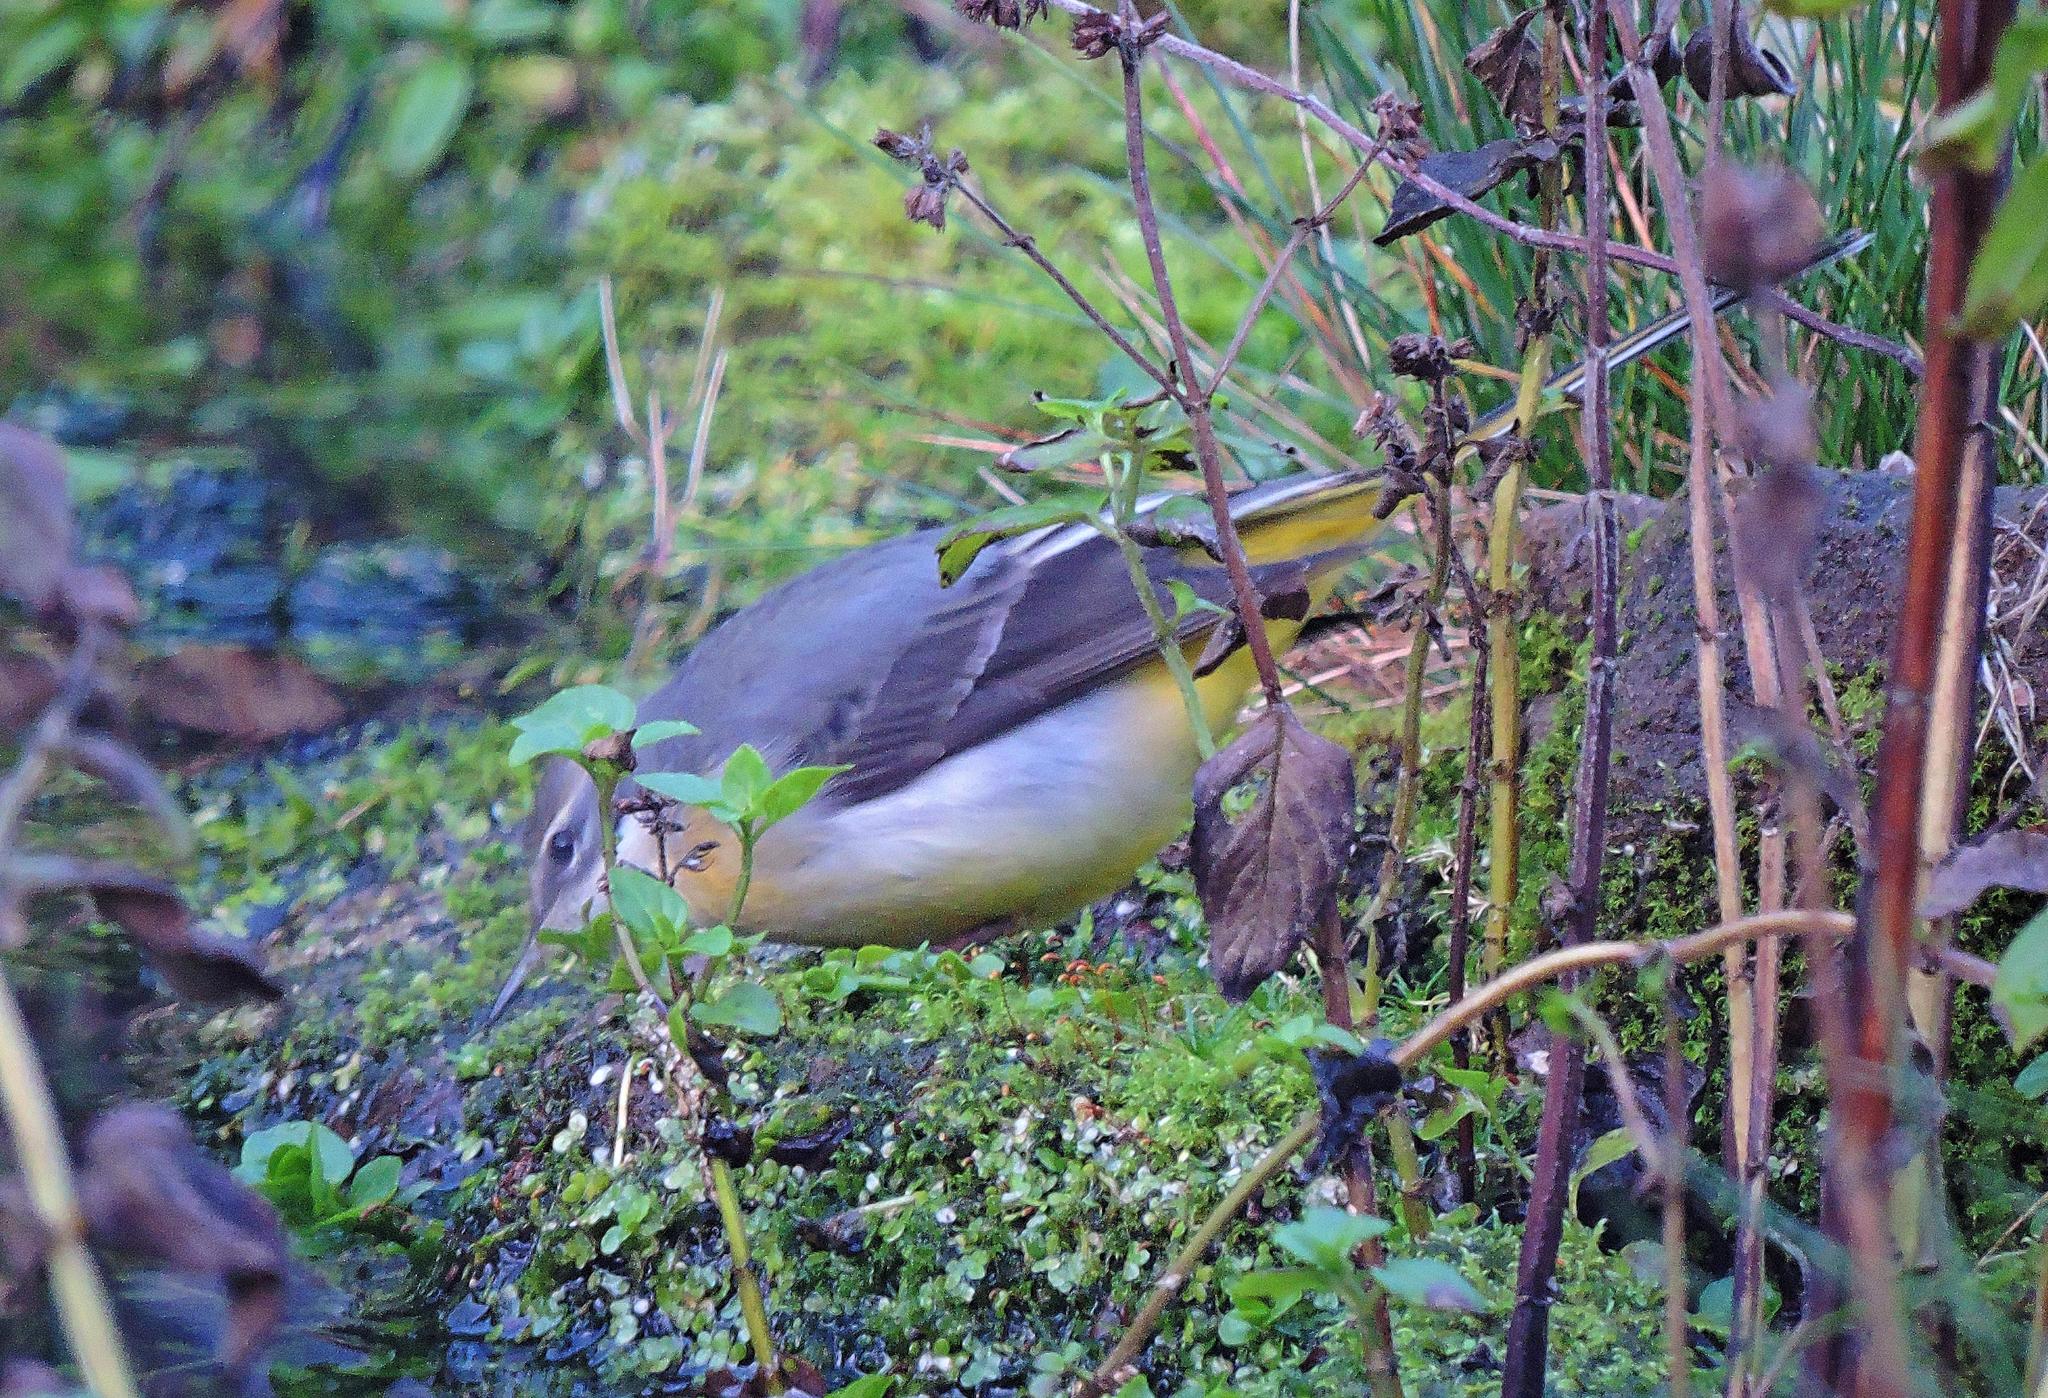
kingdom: Animalia
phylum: Chordata
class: Aves
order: Passeriformes
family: Motacillidae
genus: Motacilla
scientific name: Motacilla cinerea
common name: Grey wagtail
